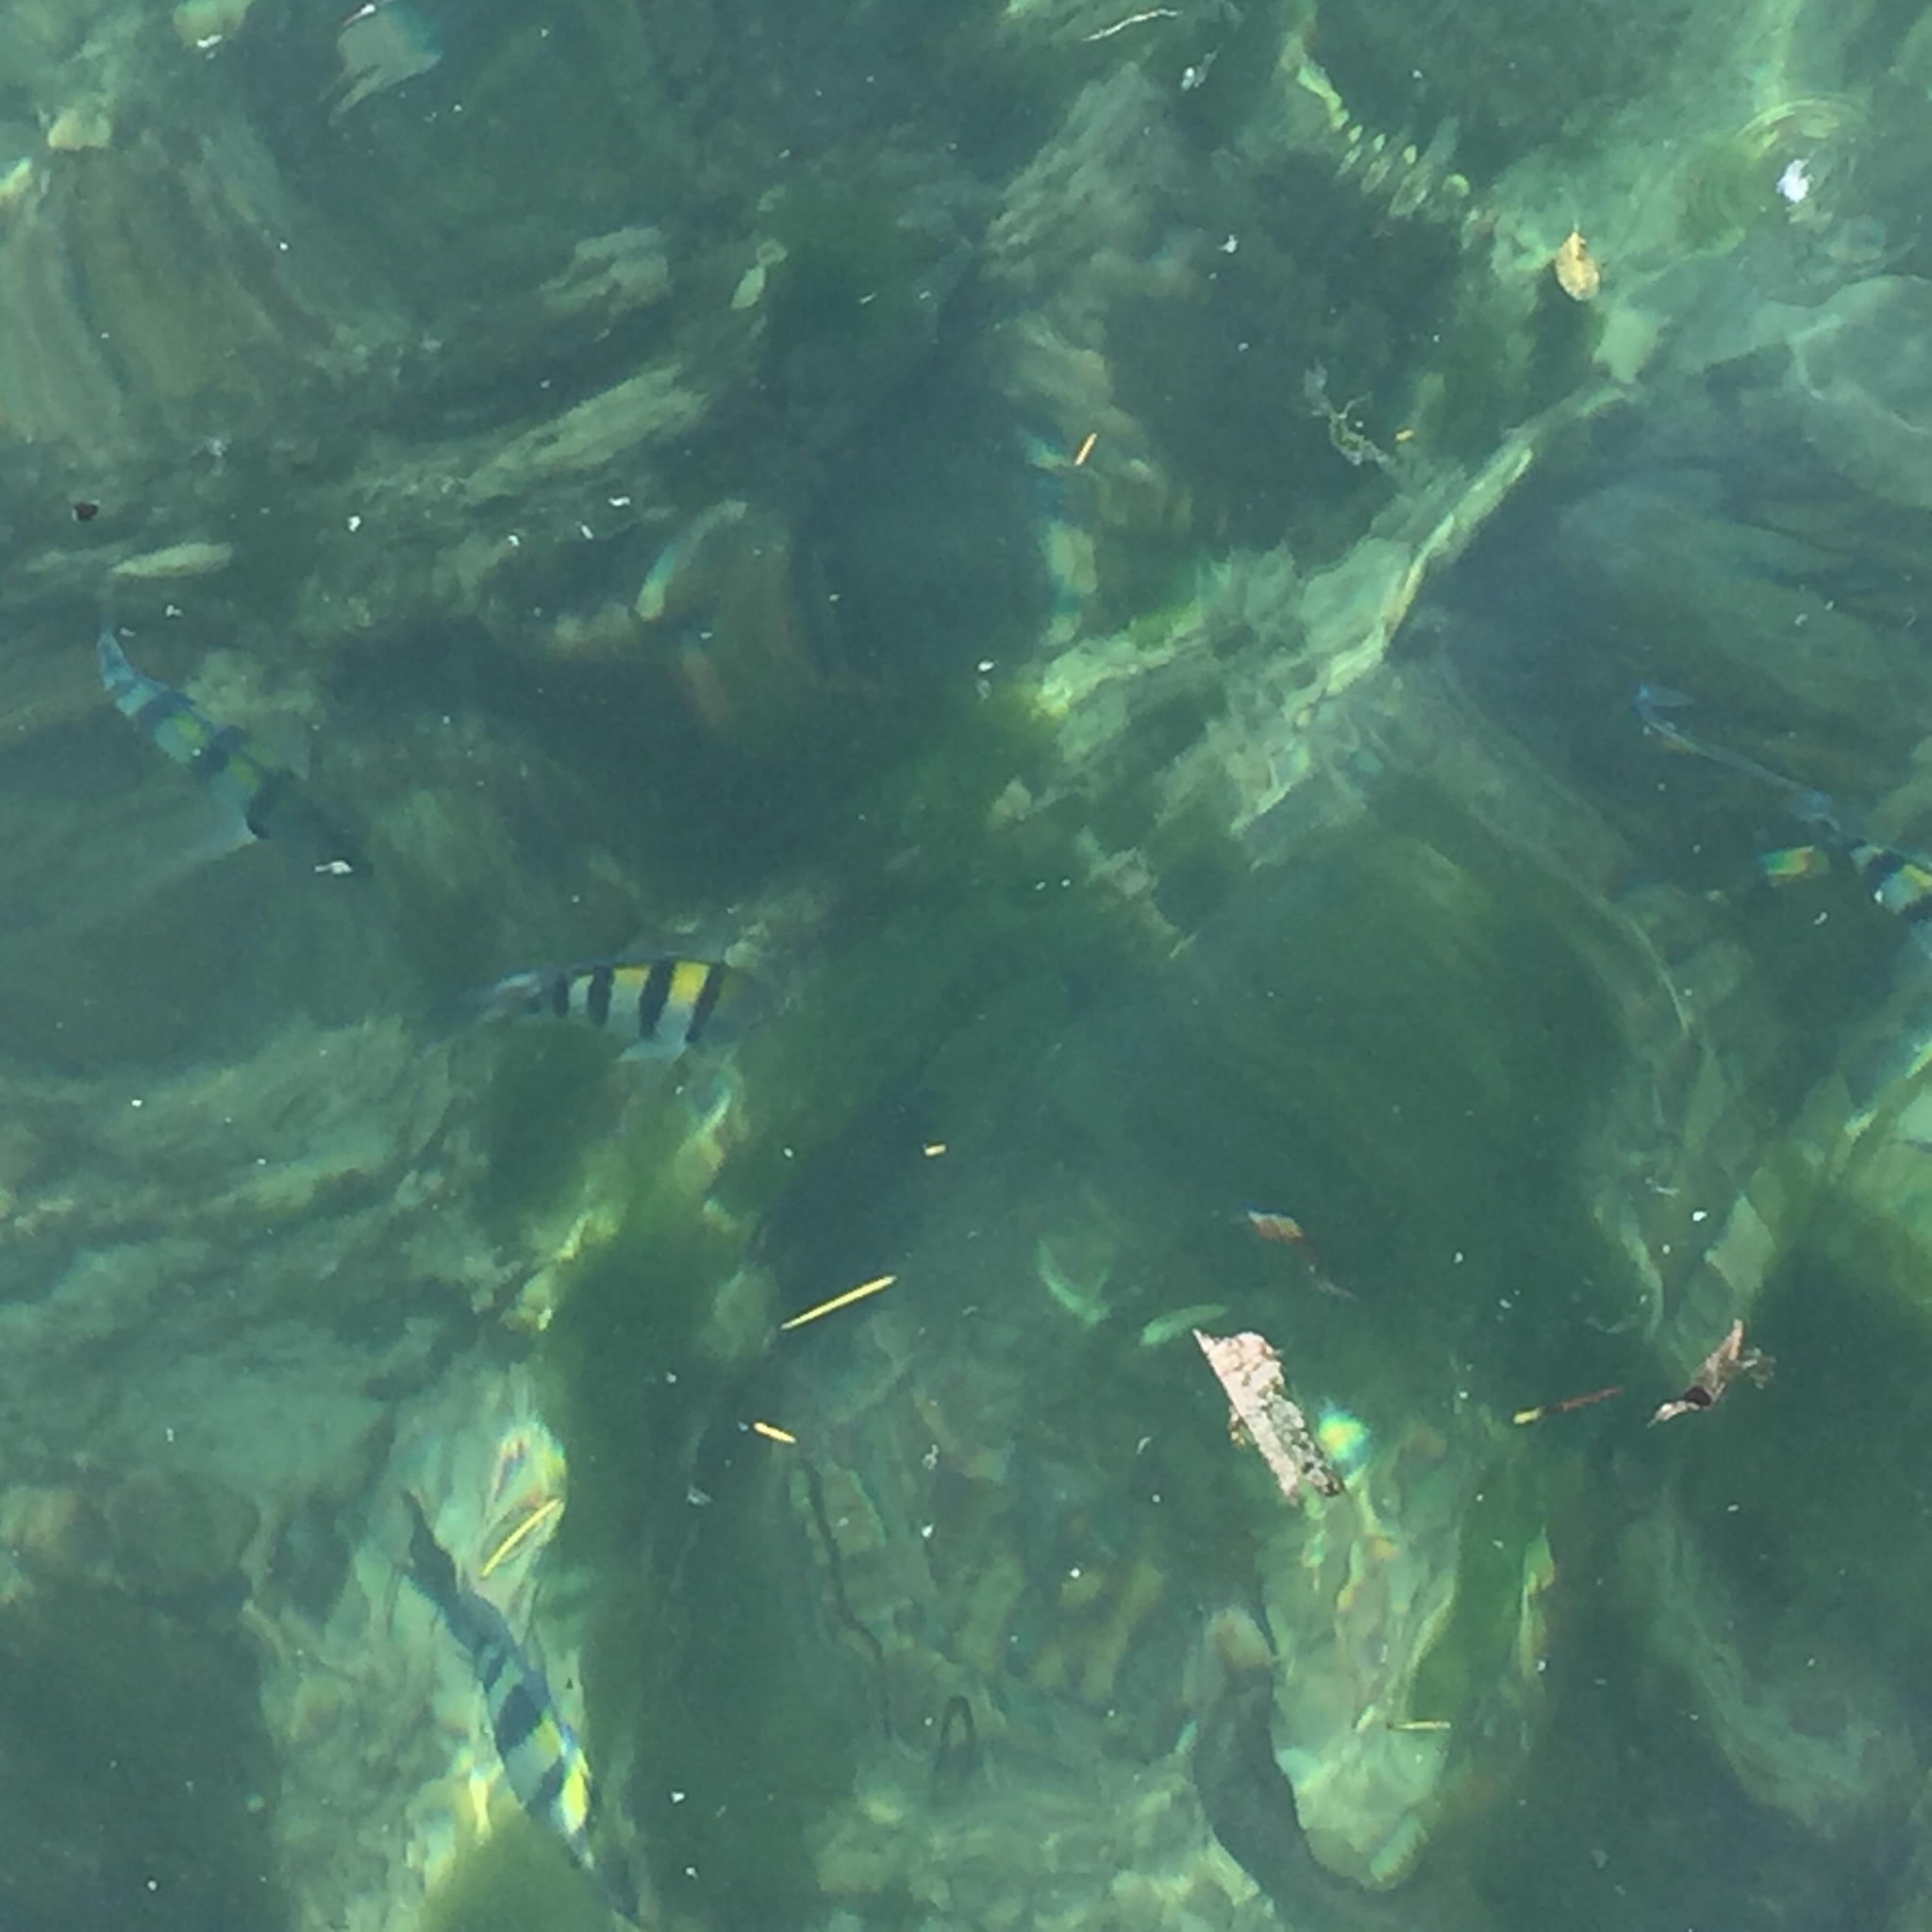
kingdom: Animalia
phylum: Chordata
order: Perciformes
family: Pomacentridae
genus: Abudefduf
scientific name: Abudefduf vaigiensis
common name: Indo-pacific sergeant
